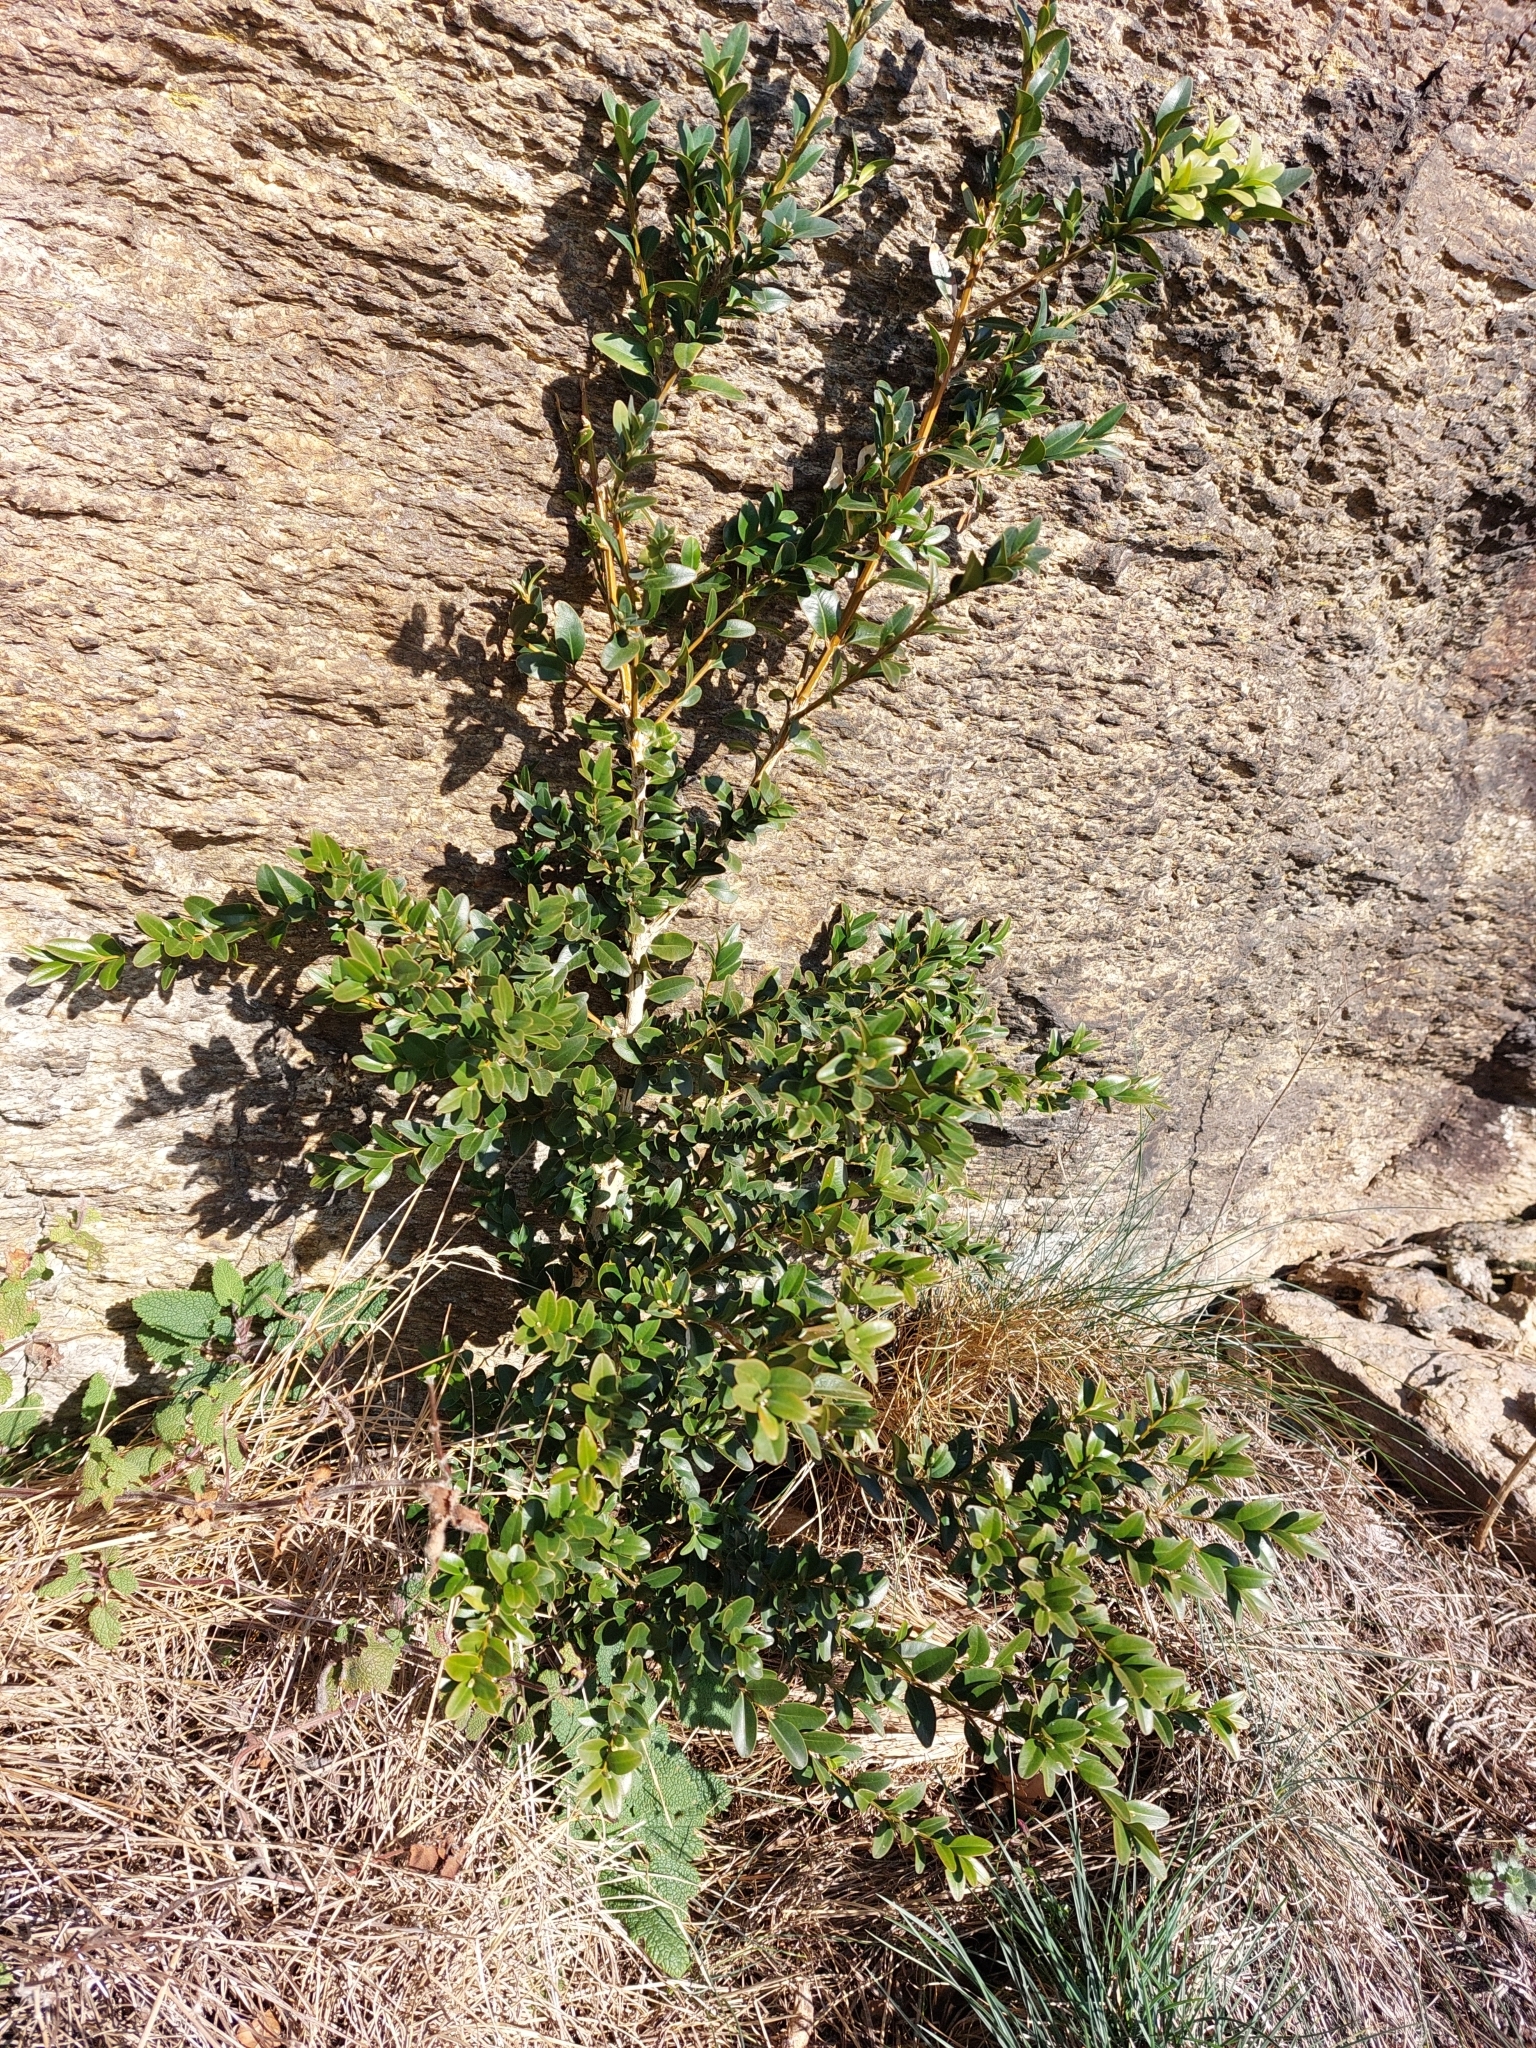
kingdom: Plantae
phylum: Tracheophyta
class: Magnoliopsida
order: Buxales
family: Buxaceae
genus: Buxus
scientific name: Buxus sempervirens
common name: Box
